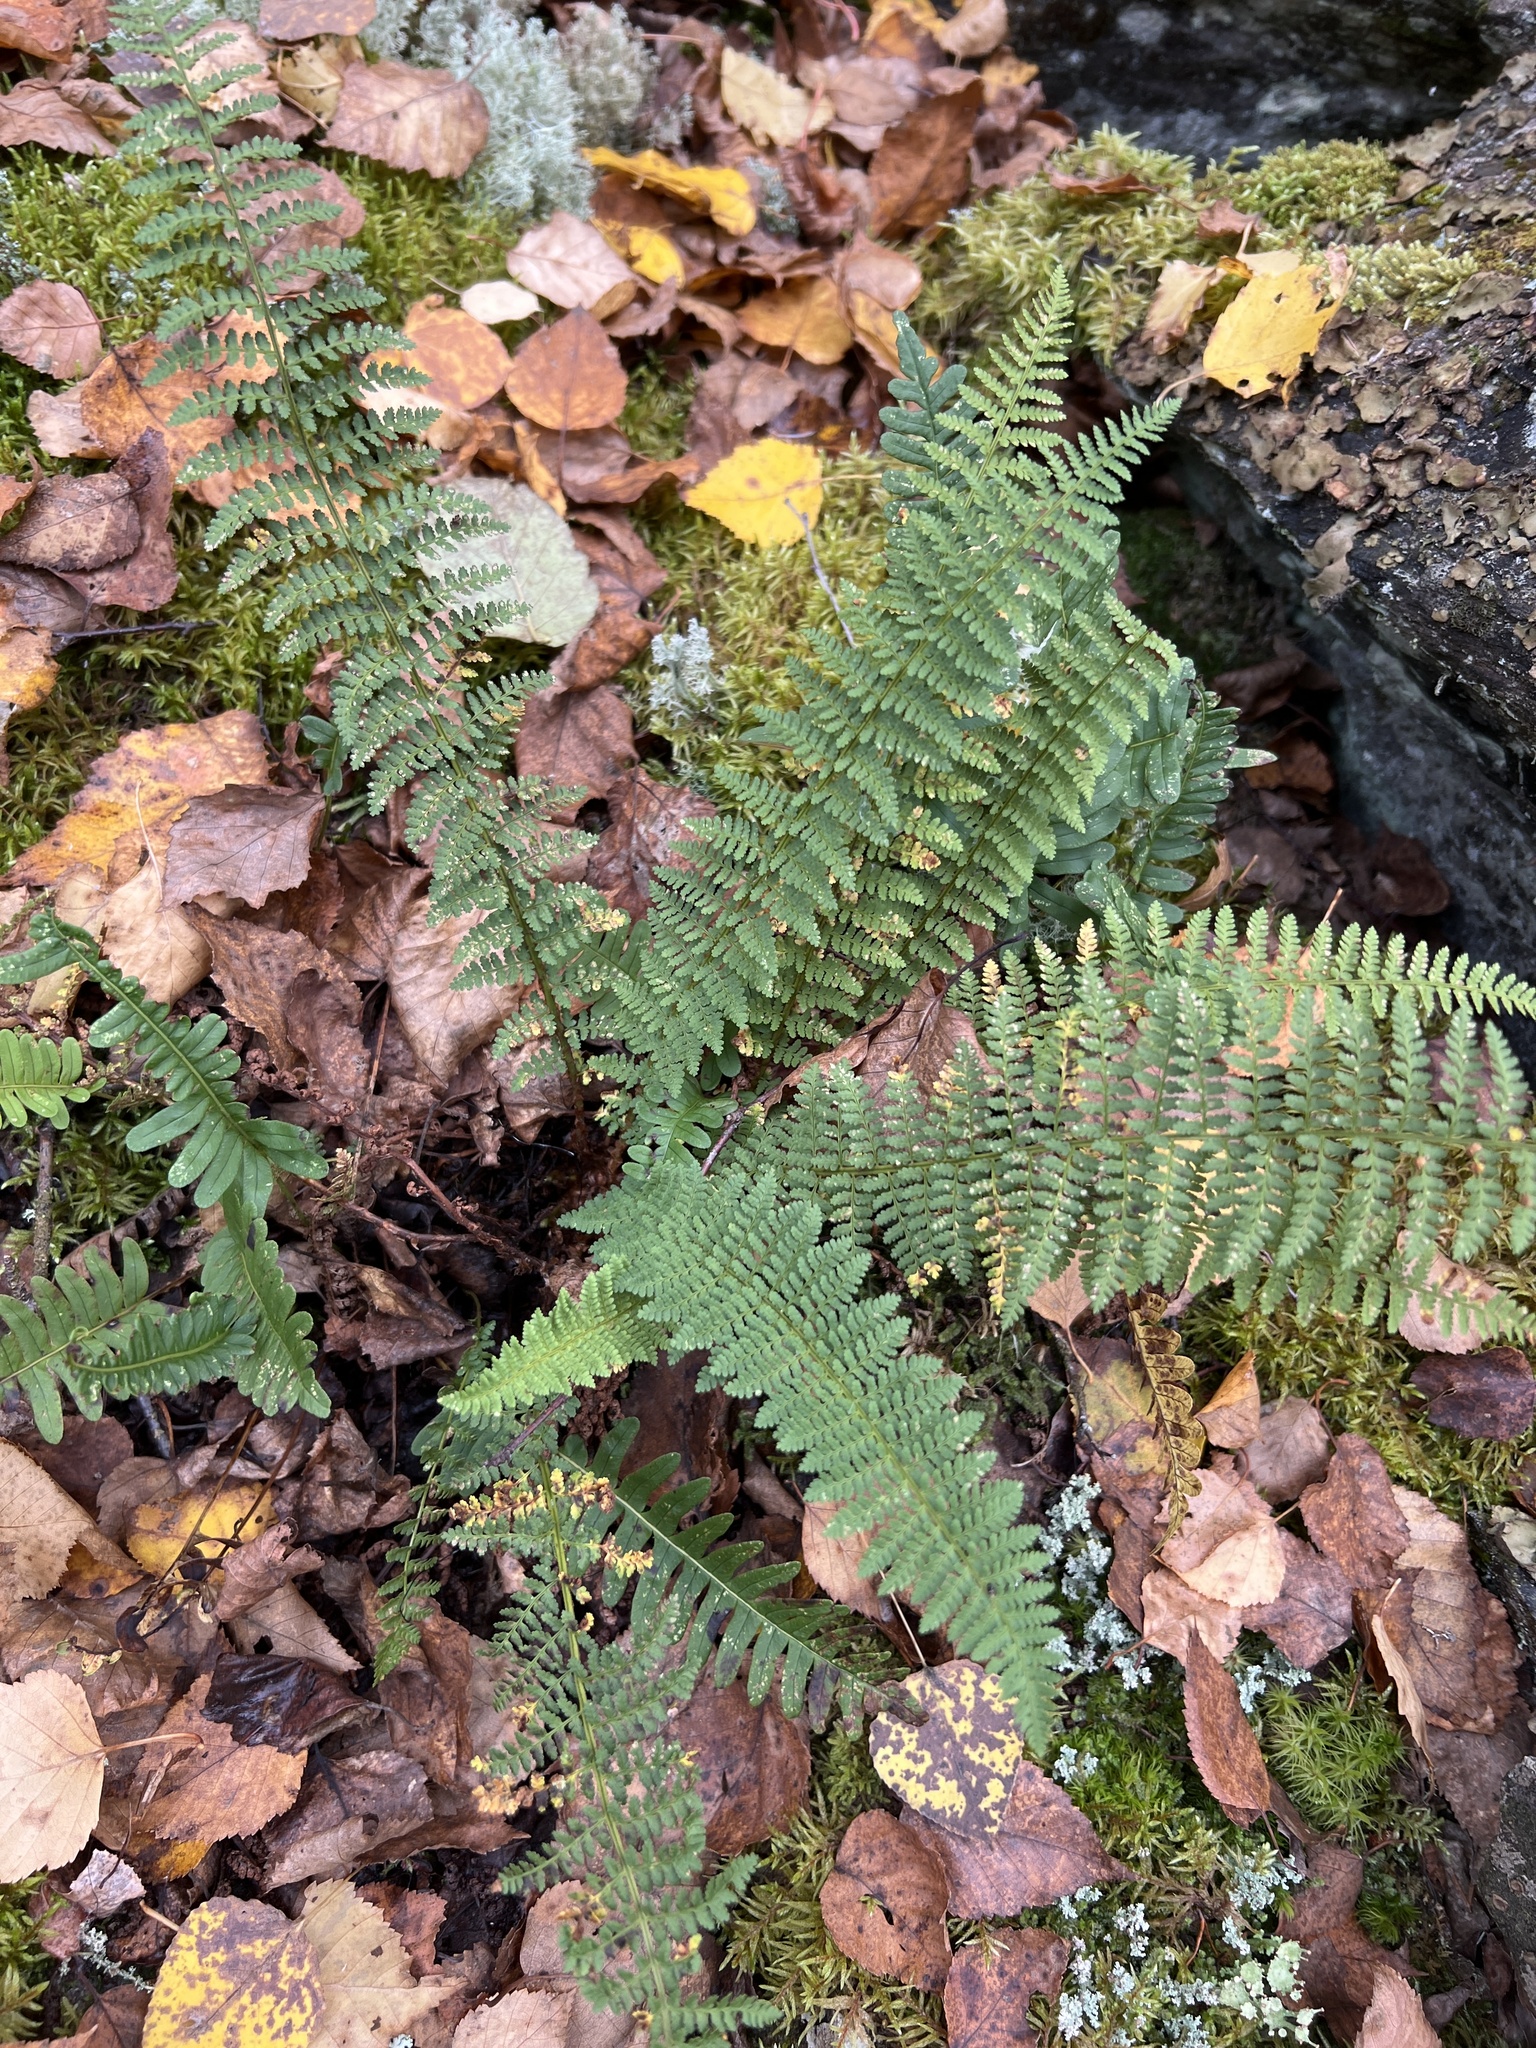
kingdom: Plantae
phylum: Tracheophyta
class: Polypodiopsida
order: Polypodiales
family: Dryopteridaceae
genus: Dryopteris
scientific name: Dryopteris fragrans
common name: Fragrant wood fern
